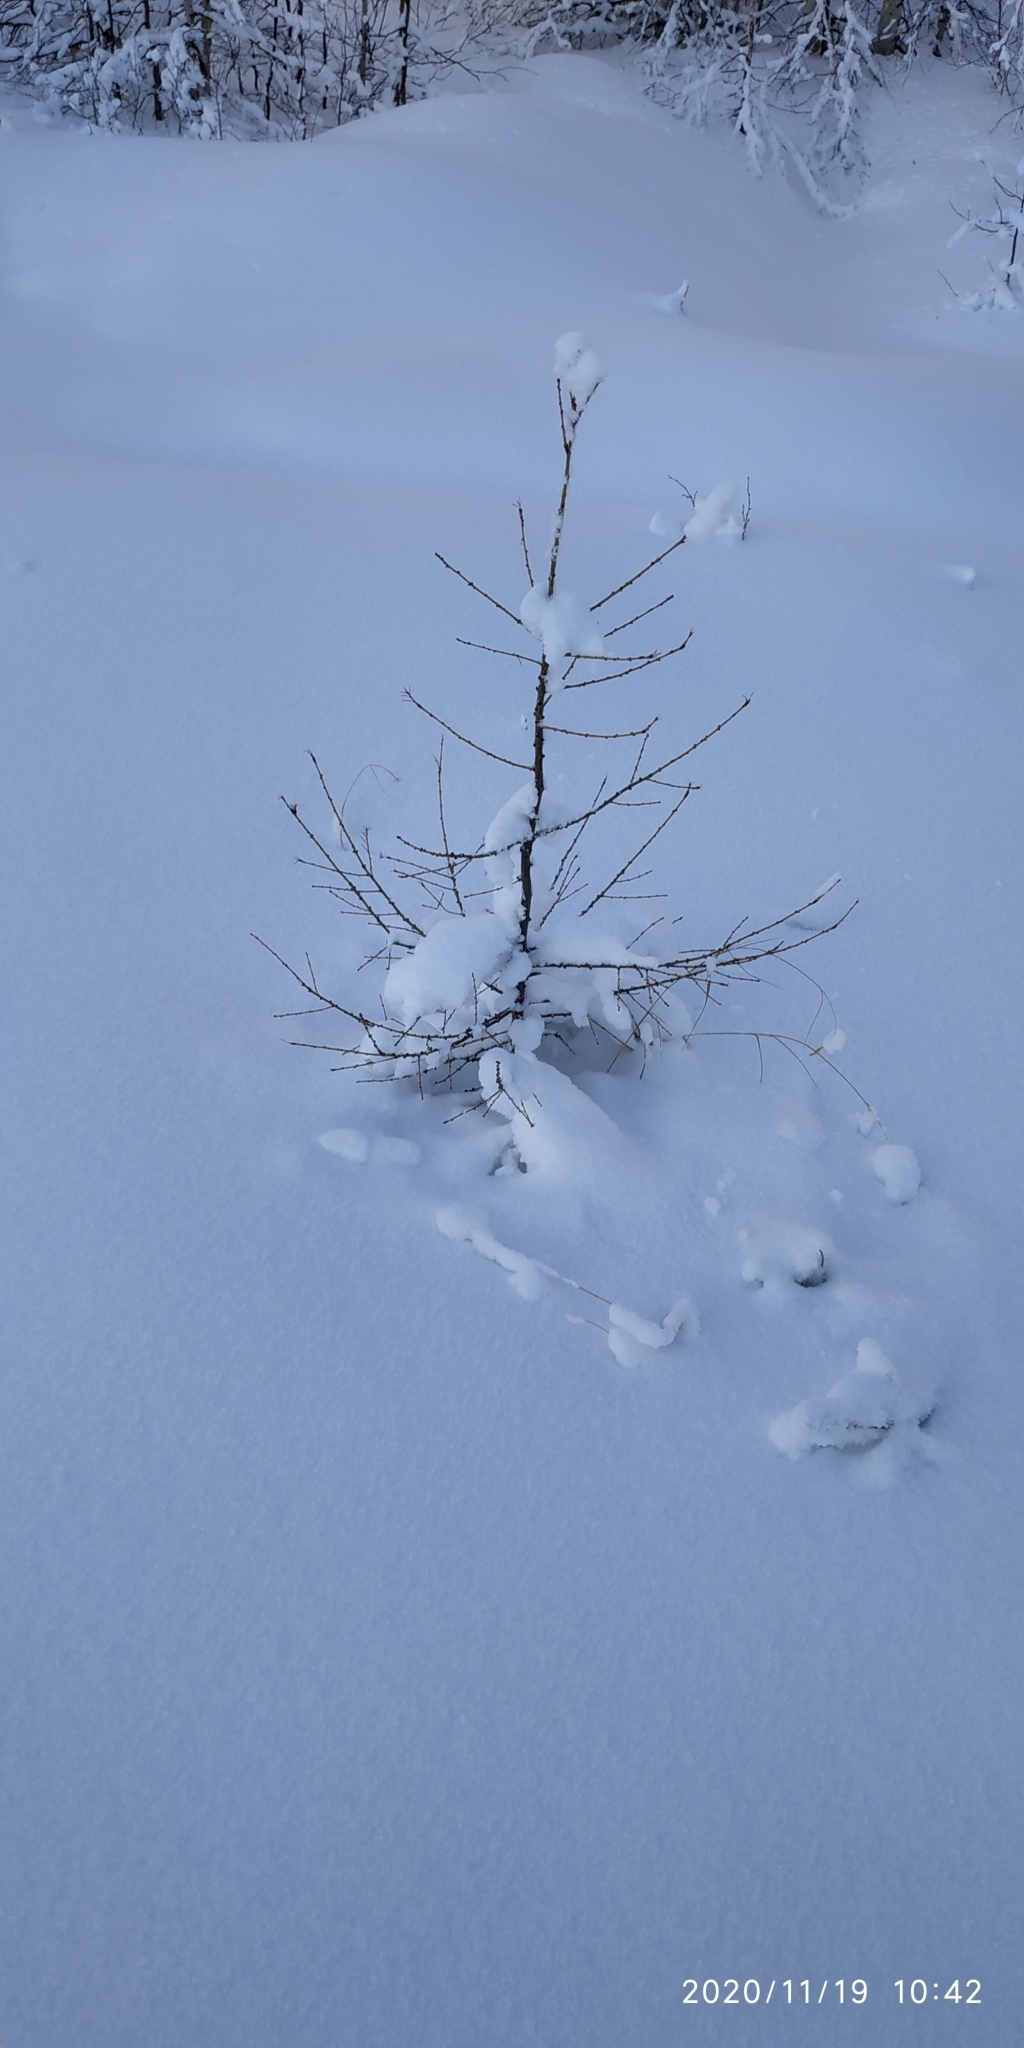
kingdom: Plantae
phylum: Tracheophyta
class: Pinopsida
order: Pinales
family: Pinaceae
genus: Larix
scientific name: Larix sibirica
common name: Siberian larch
